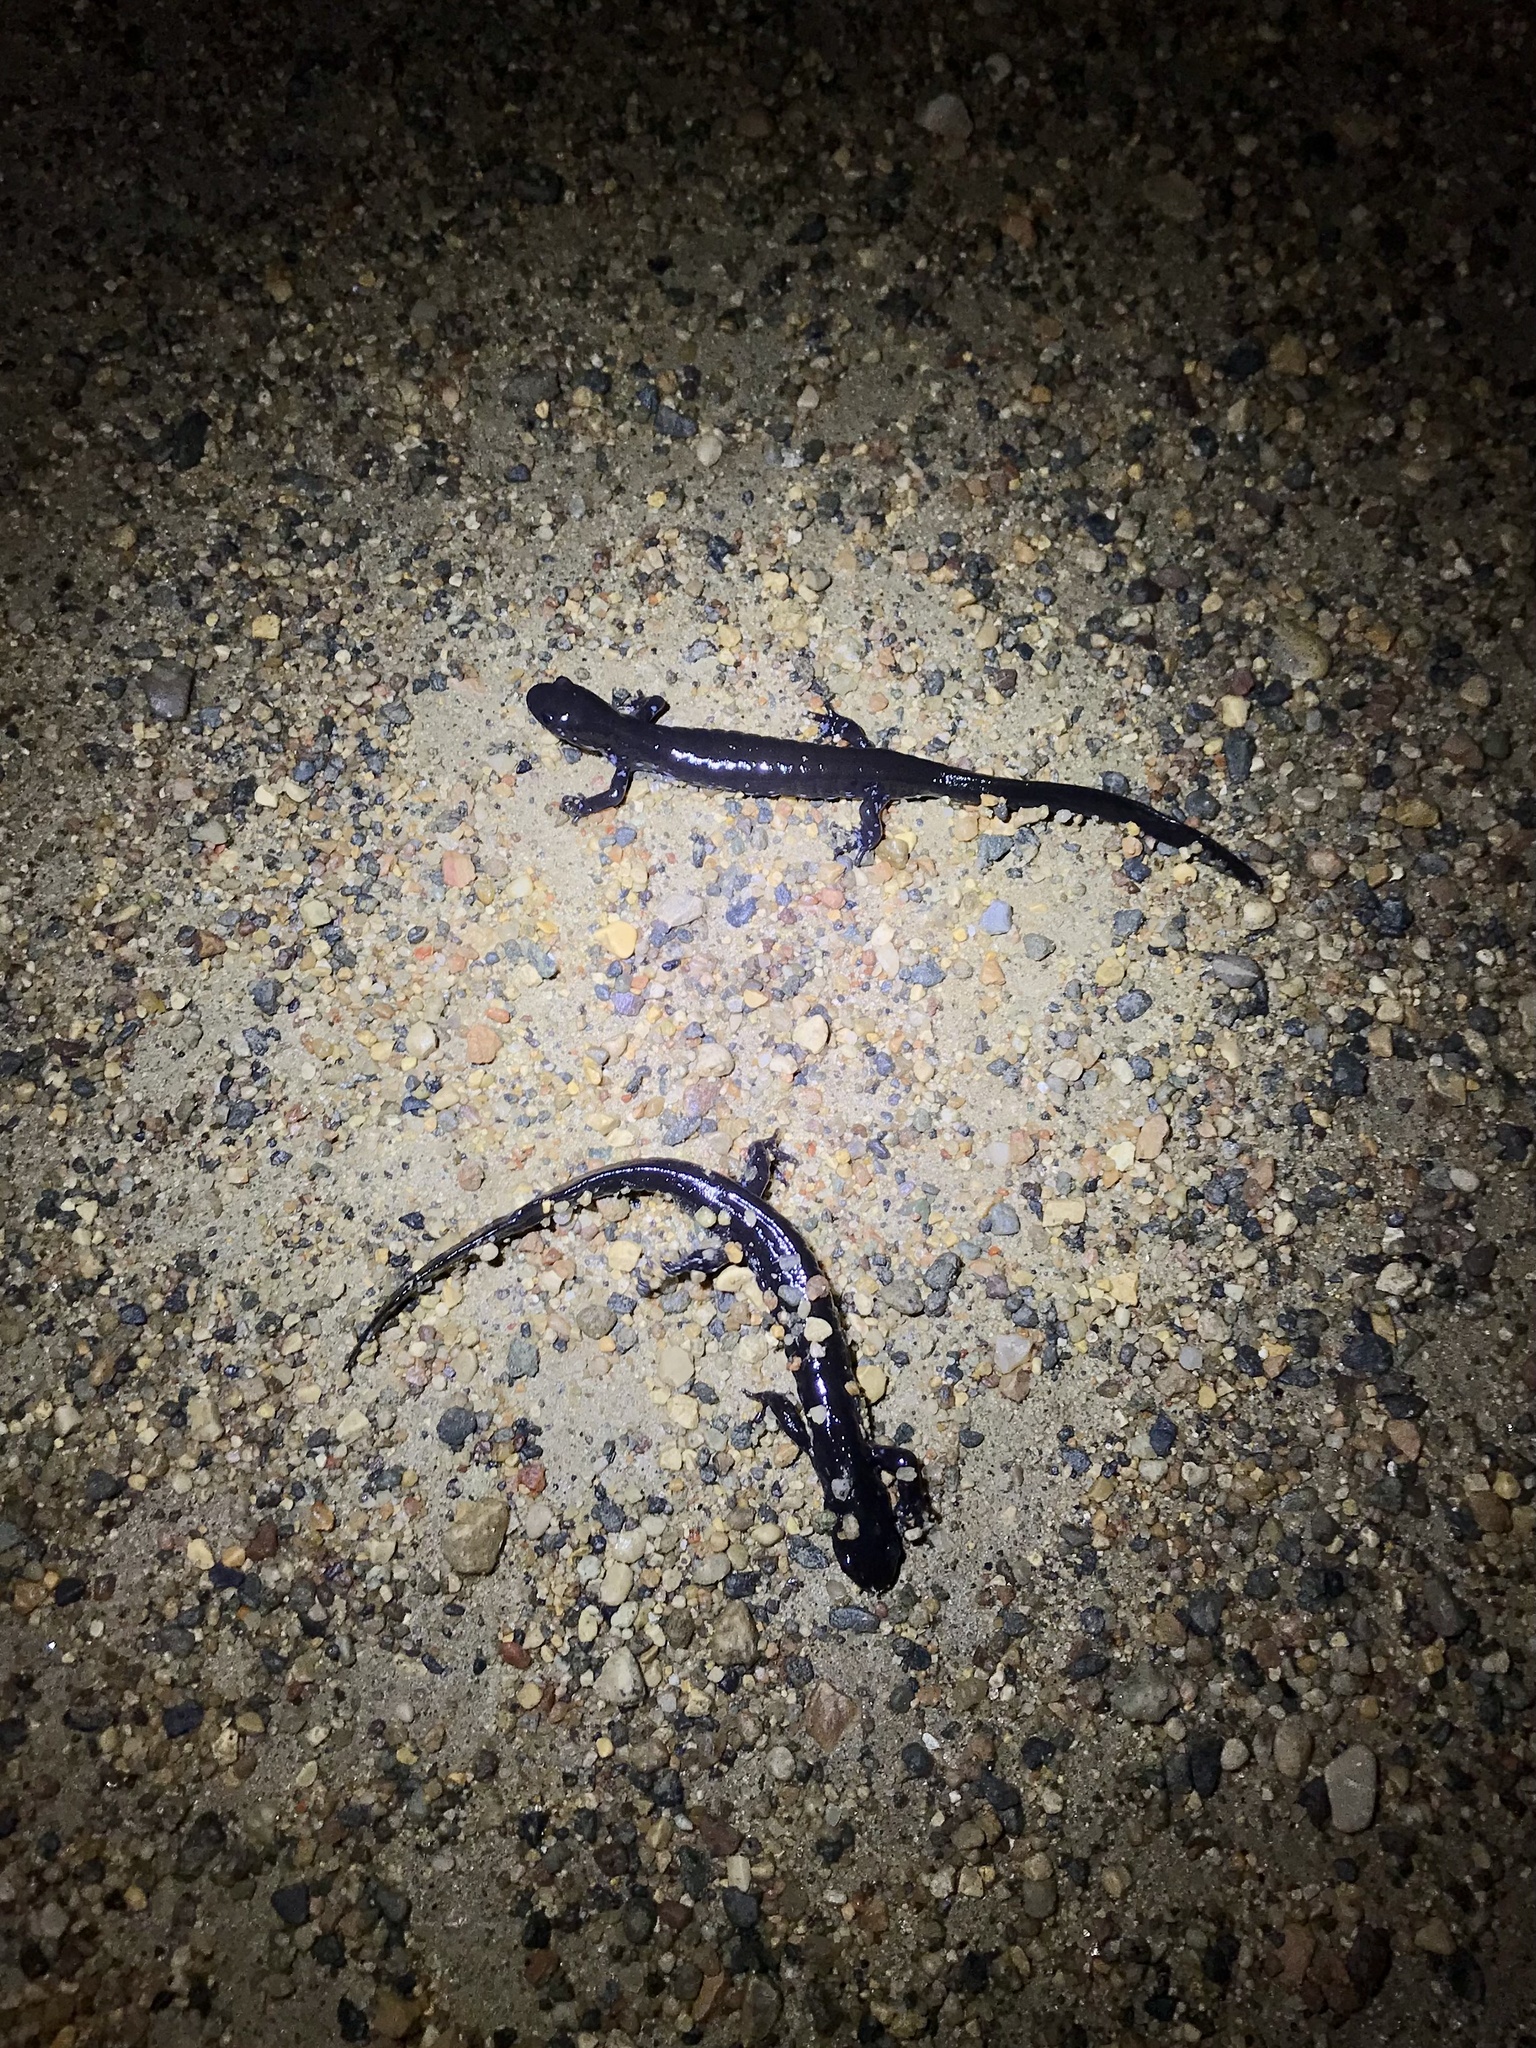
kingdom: Animalia
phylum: Chordata
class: Amphibia
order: Caudata
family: Ambystomatidae
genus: Ambystoma
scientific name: Ambystoma laterale
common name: Blue-spotted salamander
